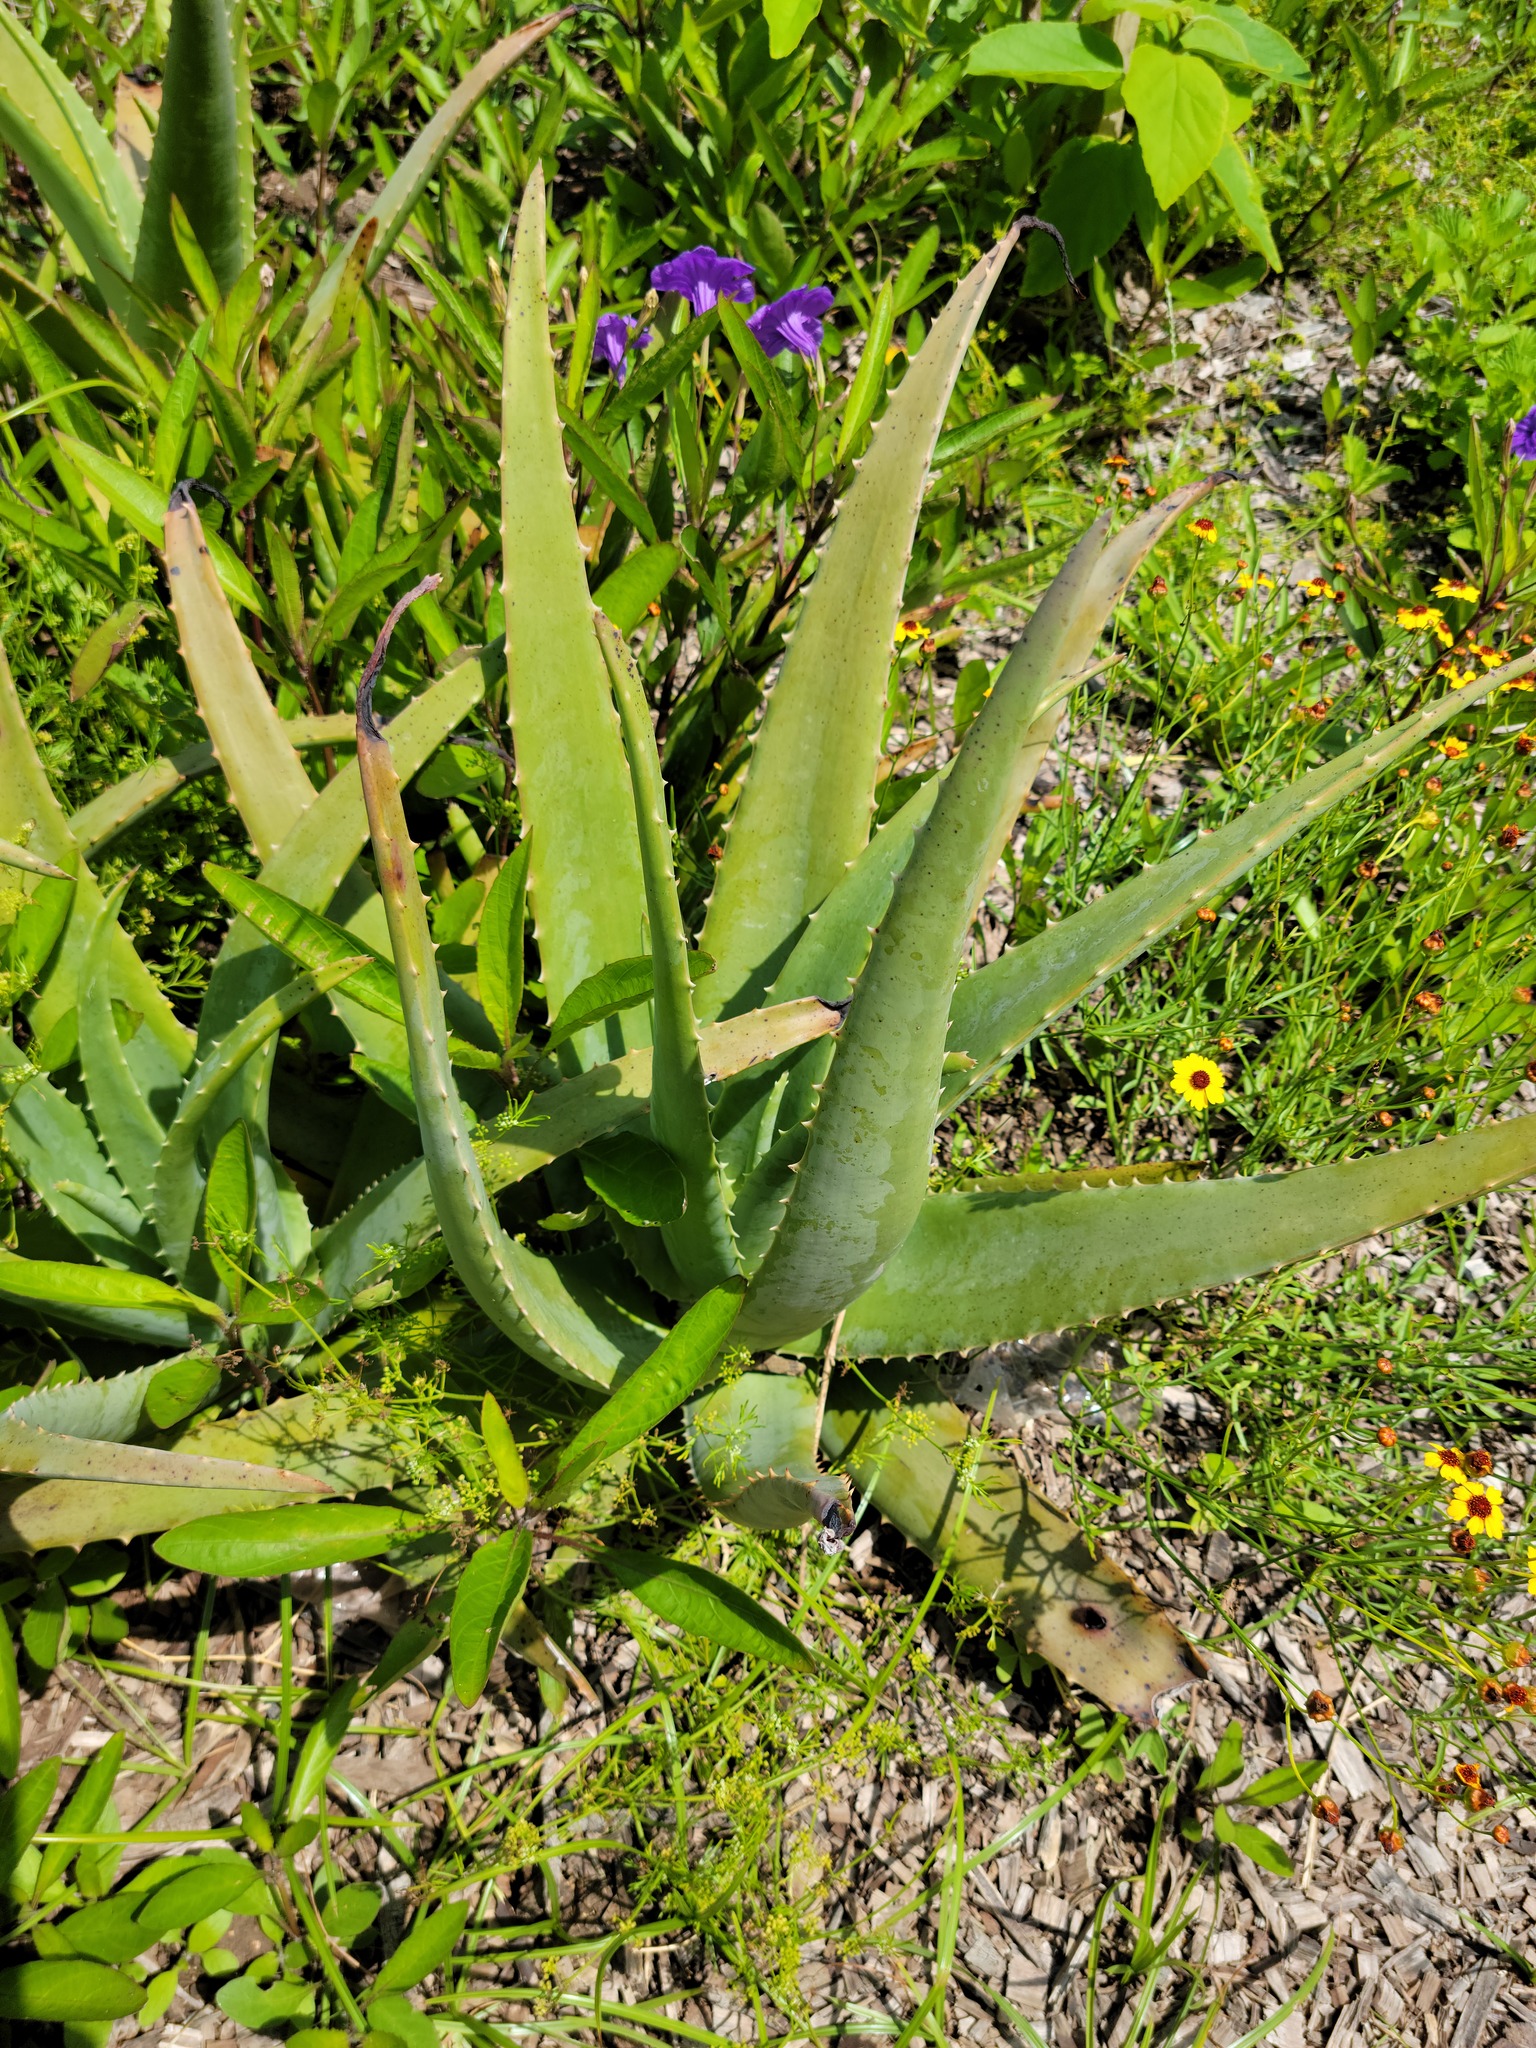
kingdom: Plantae
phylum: Tracheophyta
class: Liliopsida
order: Asparagales
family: Asphodelaceae
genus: Aloe
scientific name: Aloe vera
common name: Barbados aloe
